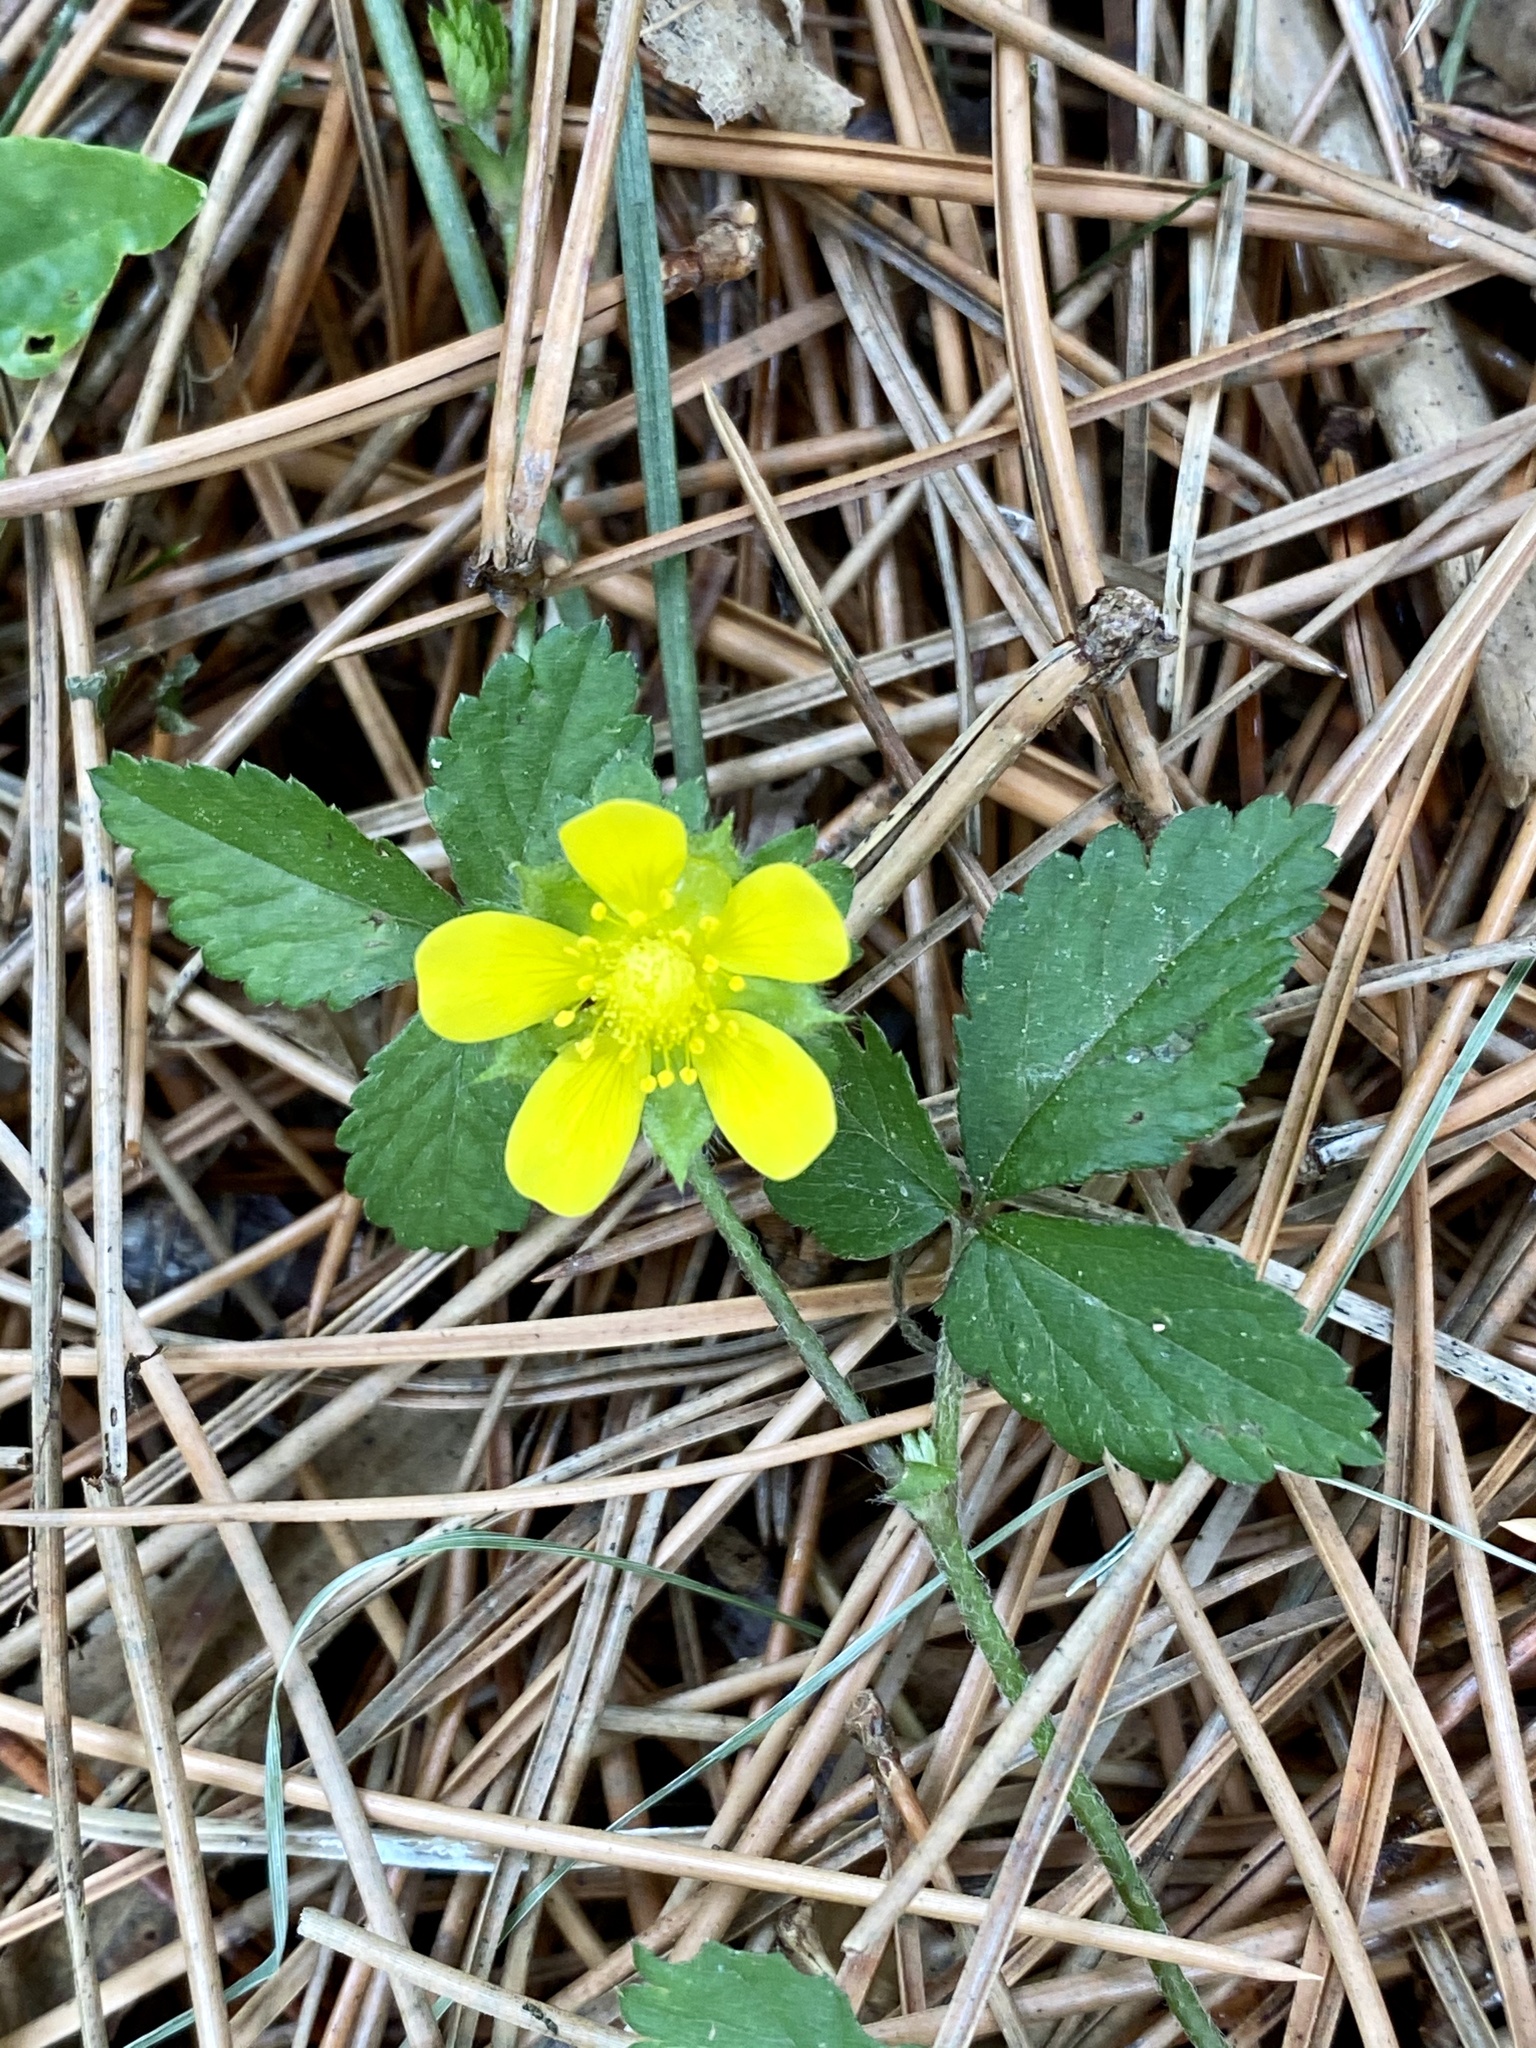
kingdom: Plantae
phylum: Tracheophyta
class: Magnoliopsida
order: Rosales
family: Rosaceae
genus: Potentilla
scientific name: Potentilla indica
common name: Yellow-flowered strawberry
